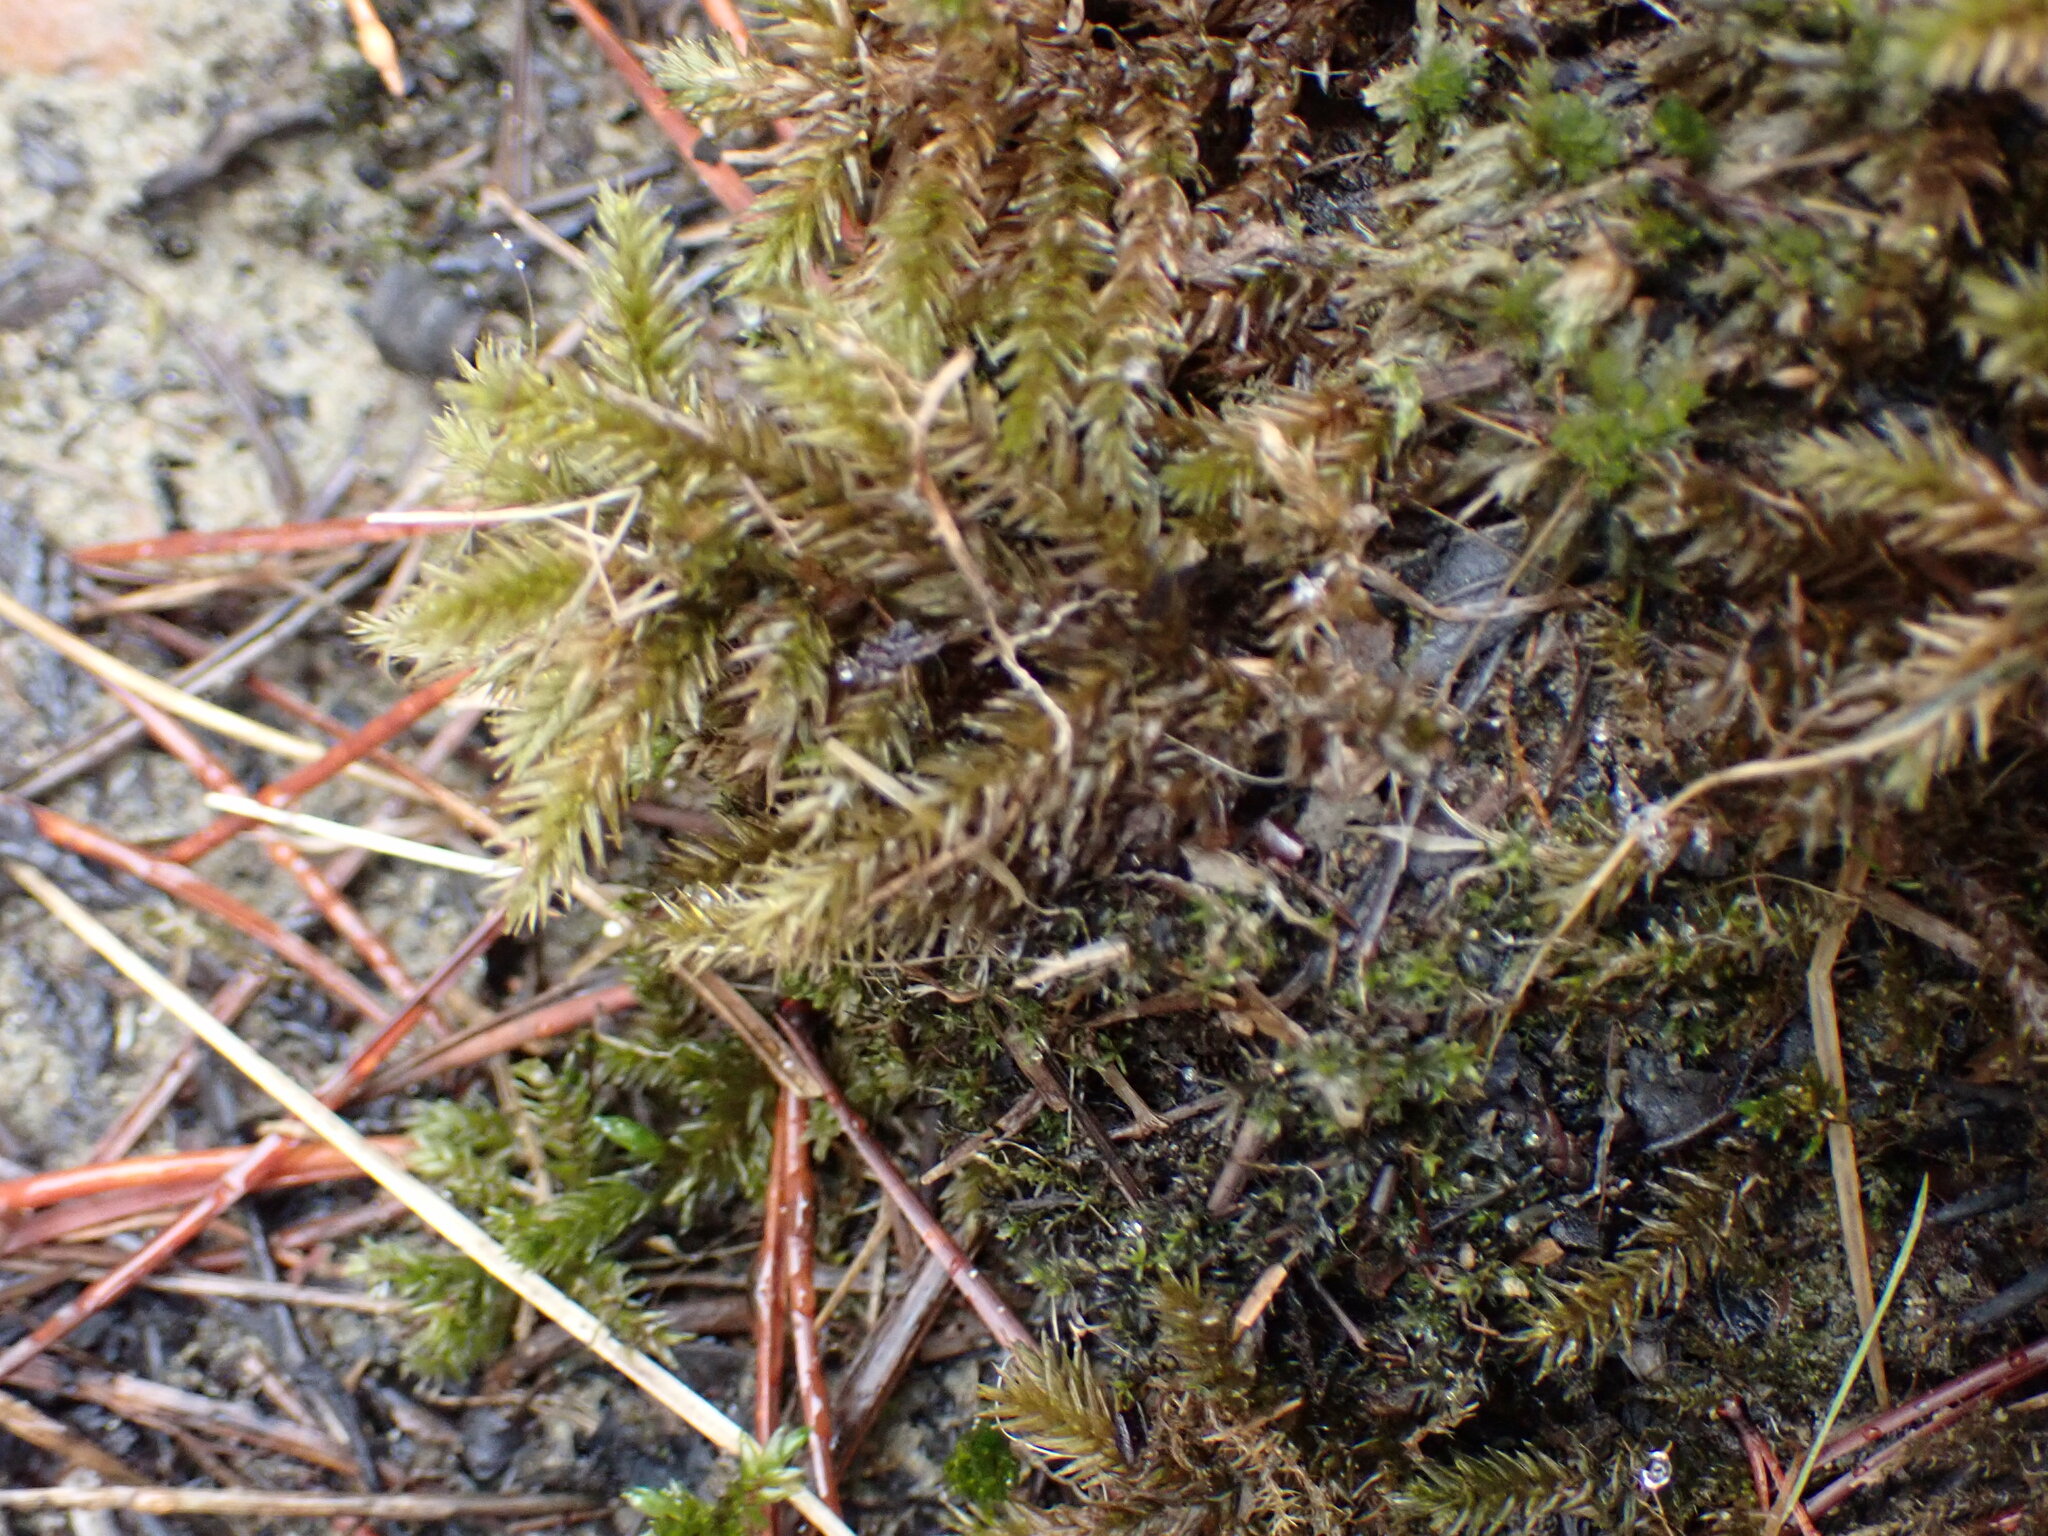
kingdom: Plantae
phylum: Bryophyta
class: Bryopsida
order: Hypnales
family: Climaciaceae
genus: Climacium
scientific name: Climacium dendroides
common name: Northern tree moss
